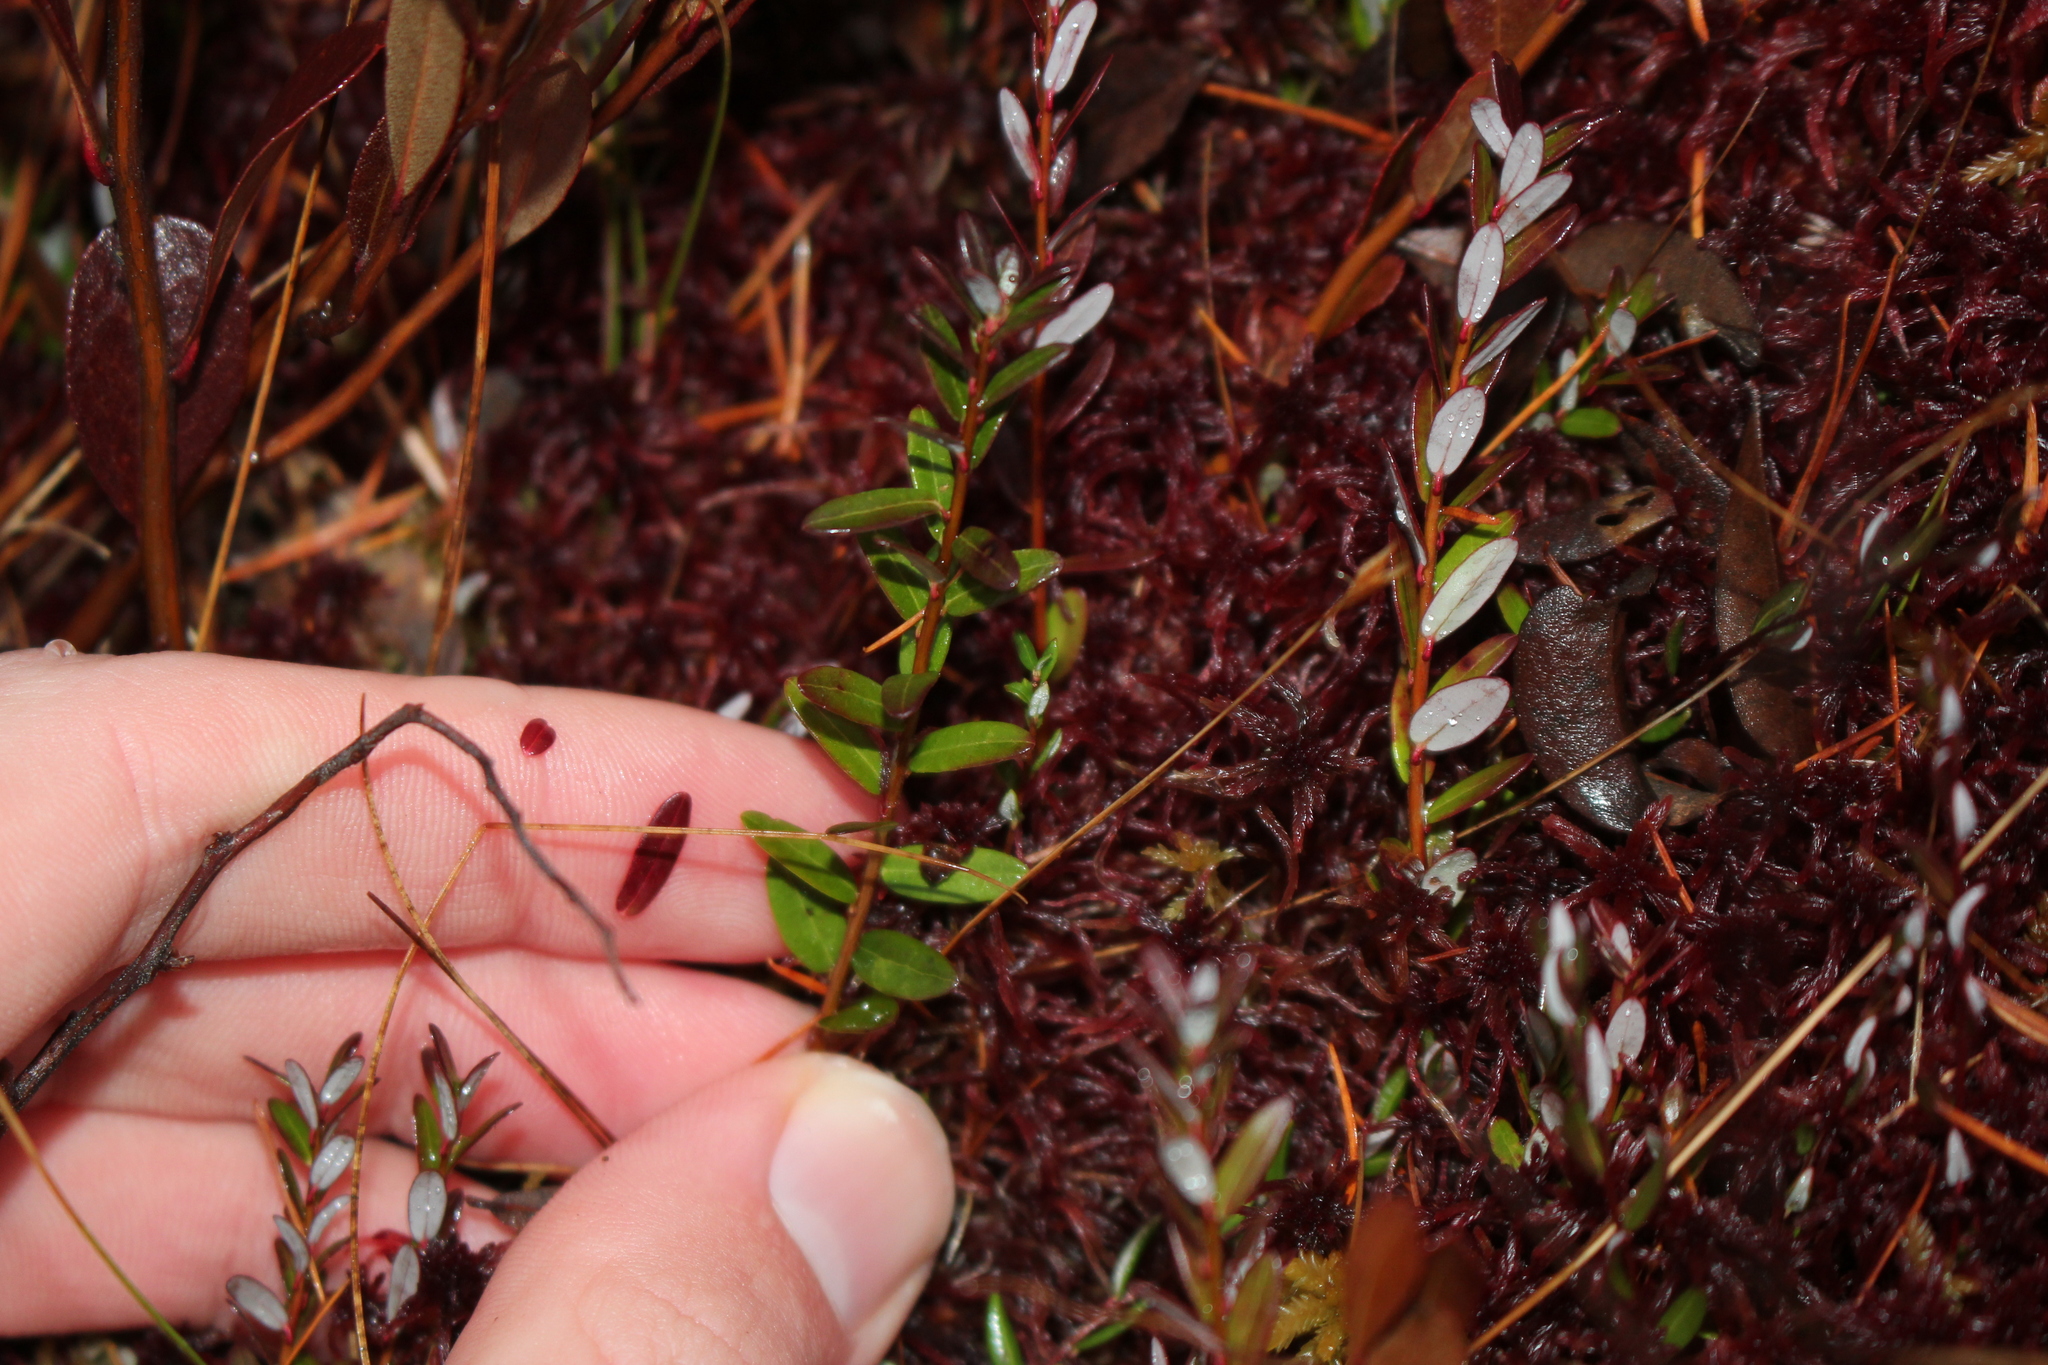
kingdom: Plantae
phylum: Tracheophyta
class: Magnoliopsida
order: Ericales
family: Ericaceae
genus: Vaccinium
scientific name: Vaccinium macrocarpon
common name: American cranberry
